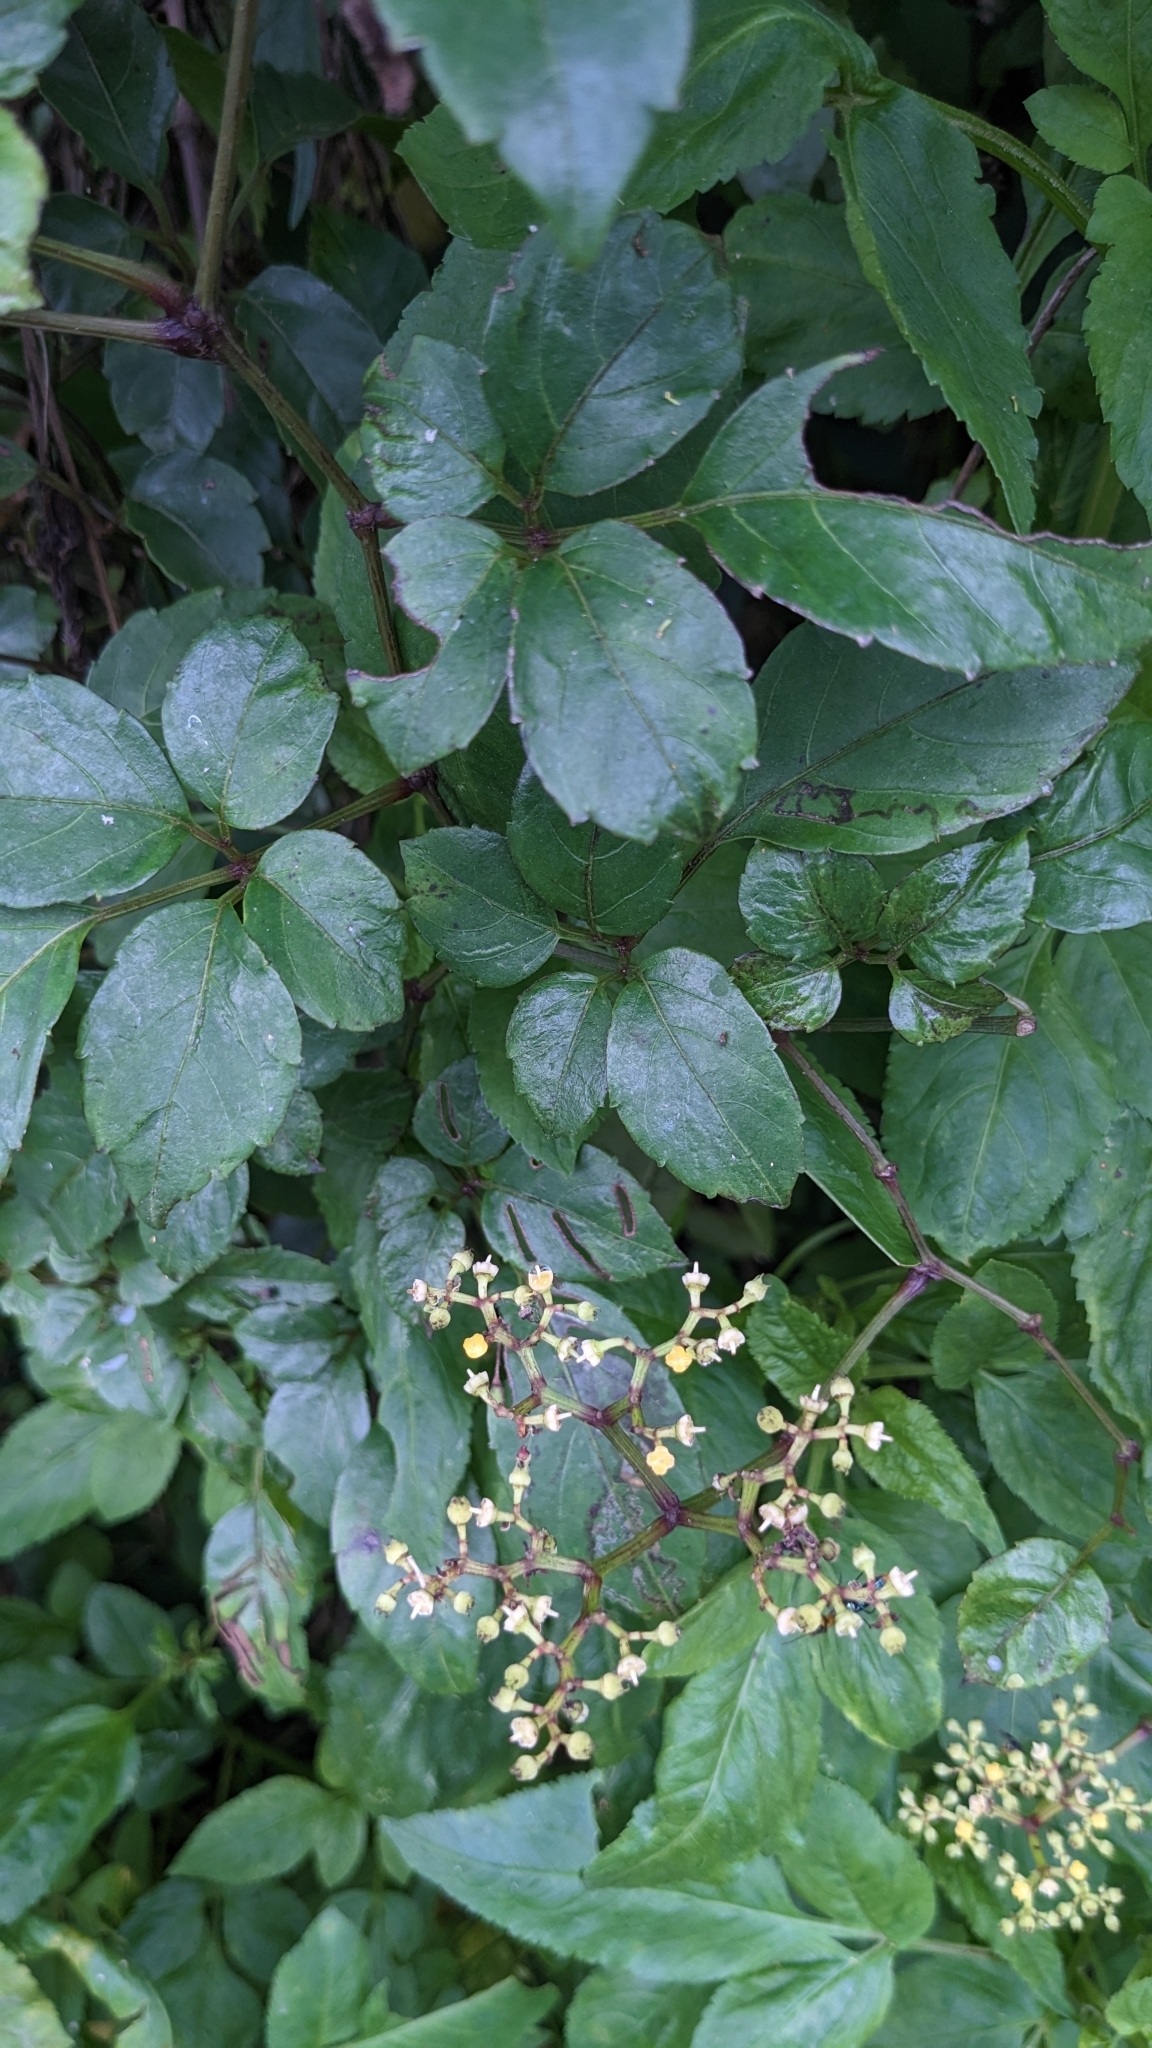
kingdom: Plantae
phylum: Tracheophyta
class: Magnoliopsida
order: Vitales
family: Vitaceae
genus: Causonis
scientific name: Causonis corniculata
